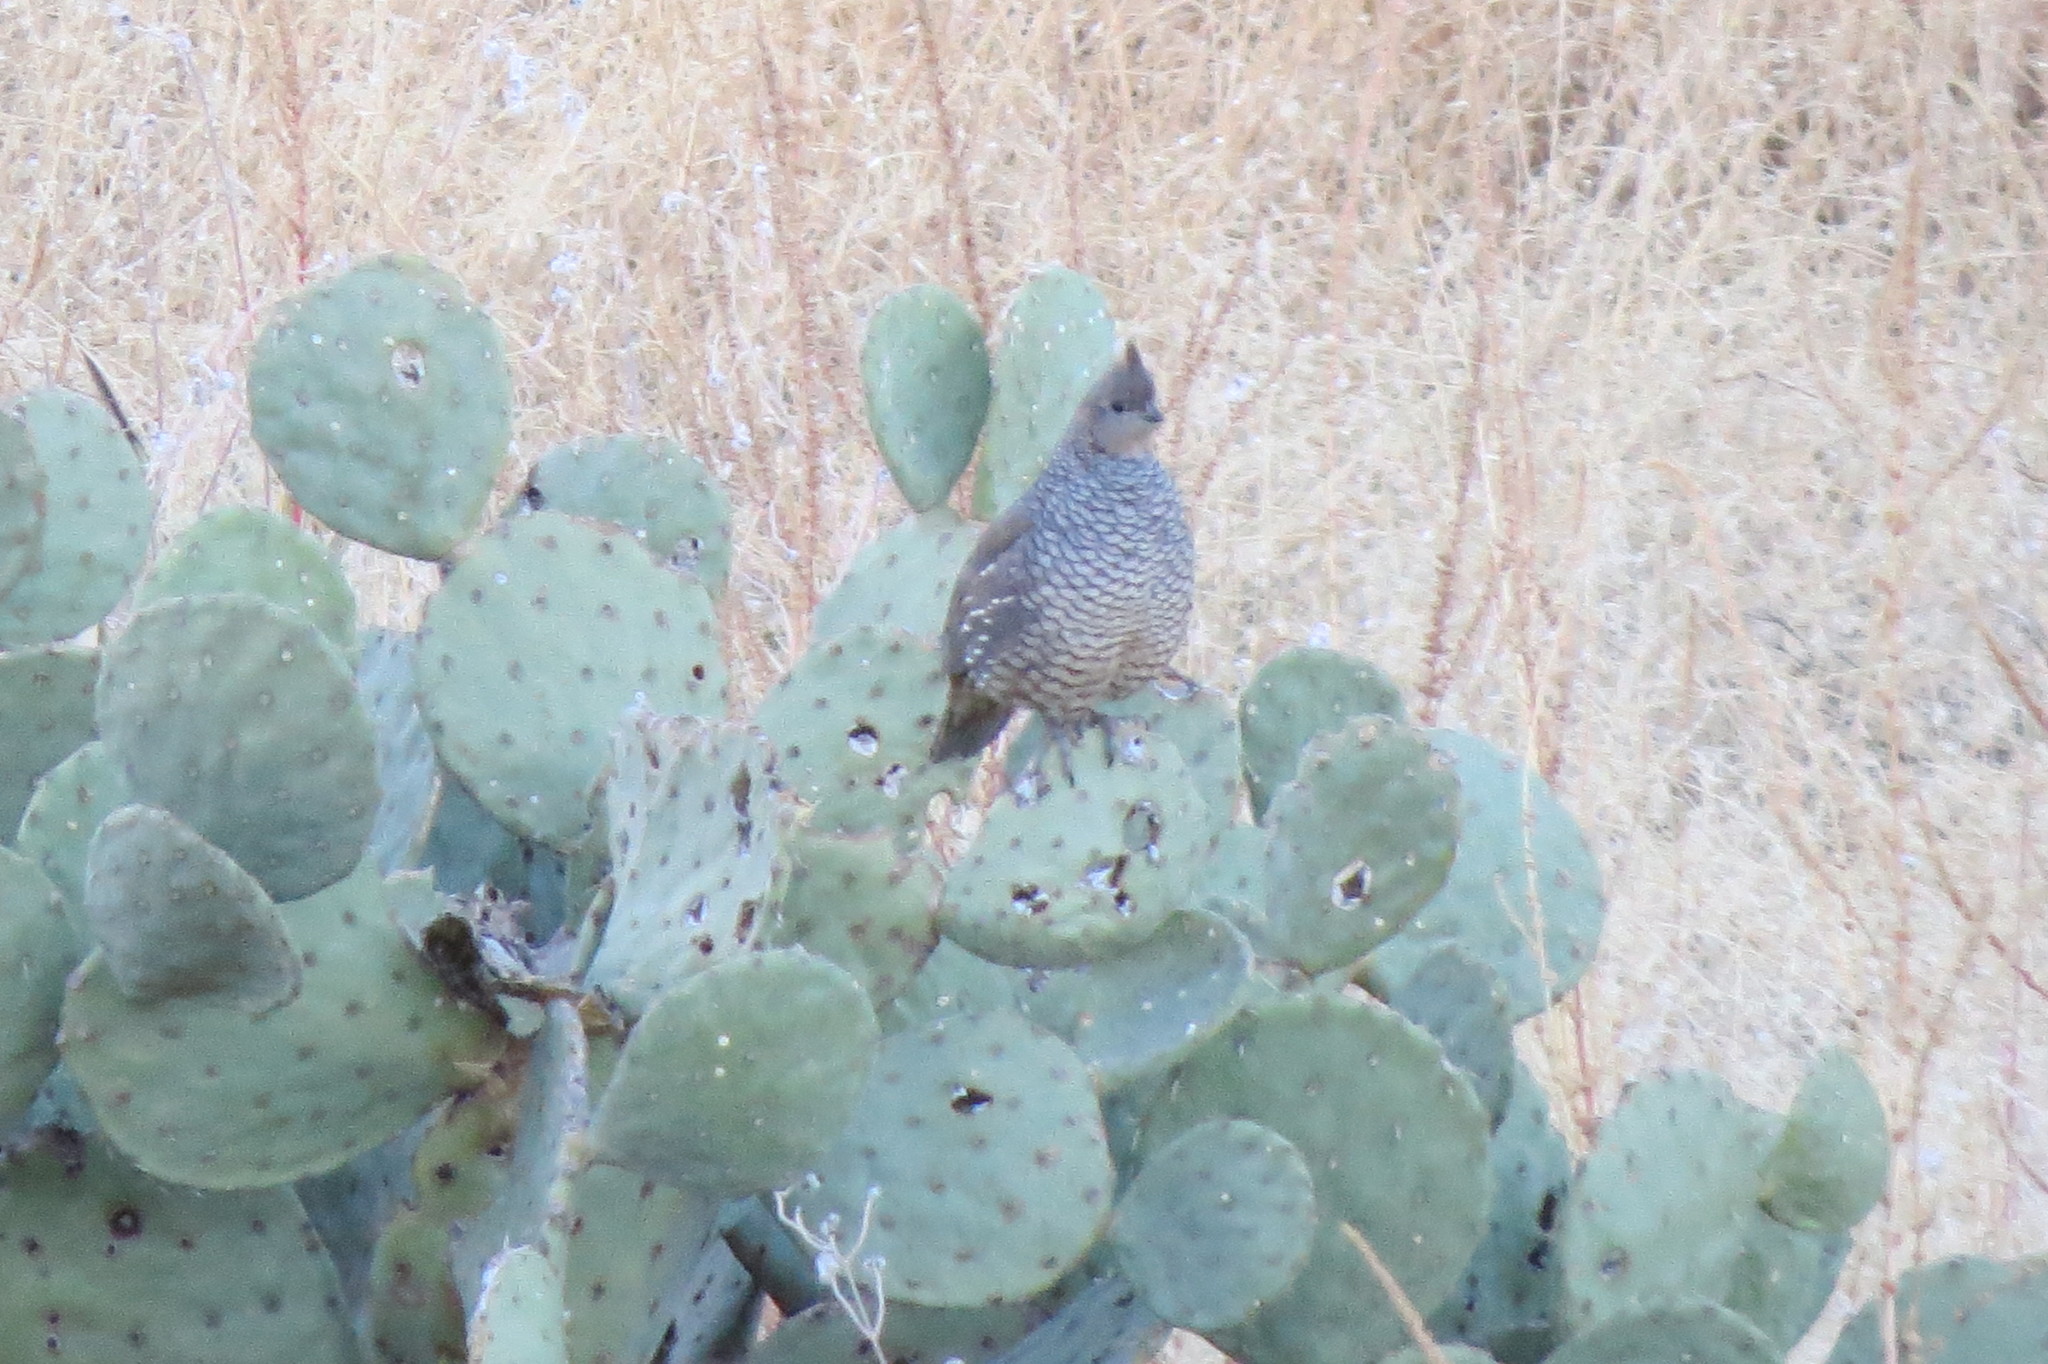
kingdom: Animalia
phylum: Chordata
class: Aves
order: Galliformes
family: Odontophoridae
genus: Callipepla
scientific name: Callipepla squamata
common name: Scaled quail
